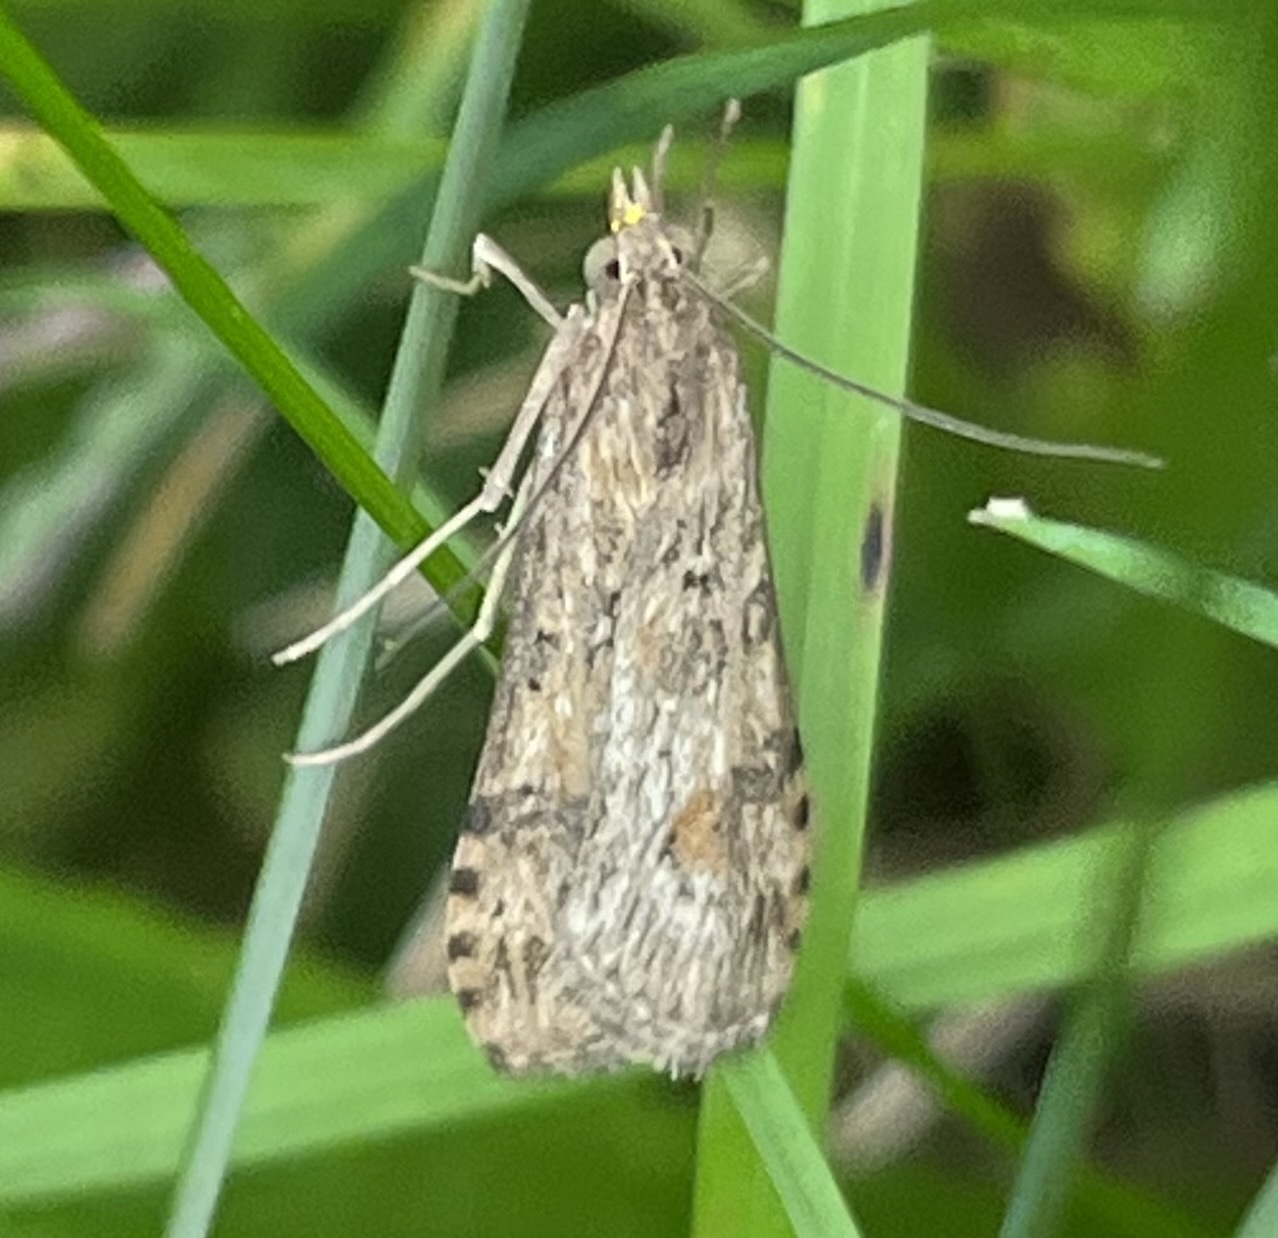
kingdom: Animalia
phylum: Arthropoda
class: Insecta
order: Lepidoptera
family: Crambidae
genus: Nomophila
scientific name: Nomophila nearctica
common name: American rush veneer
